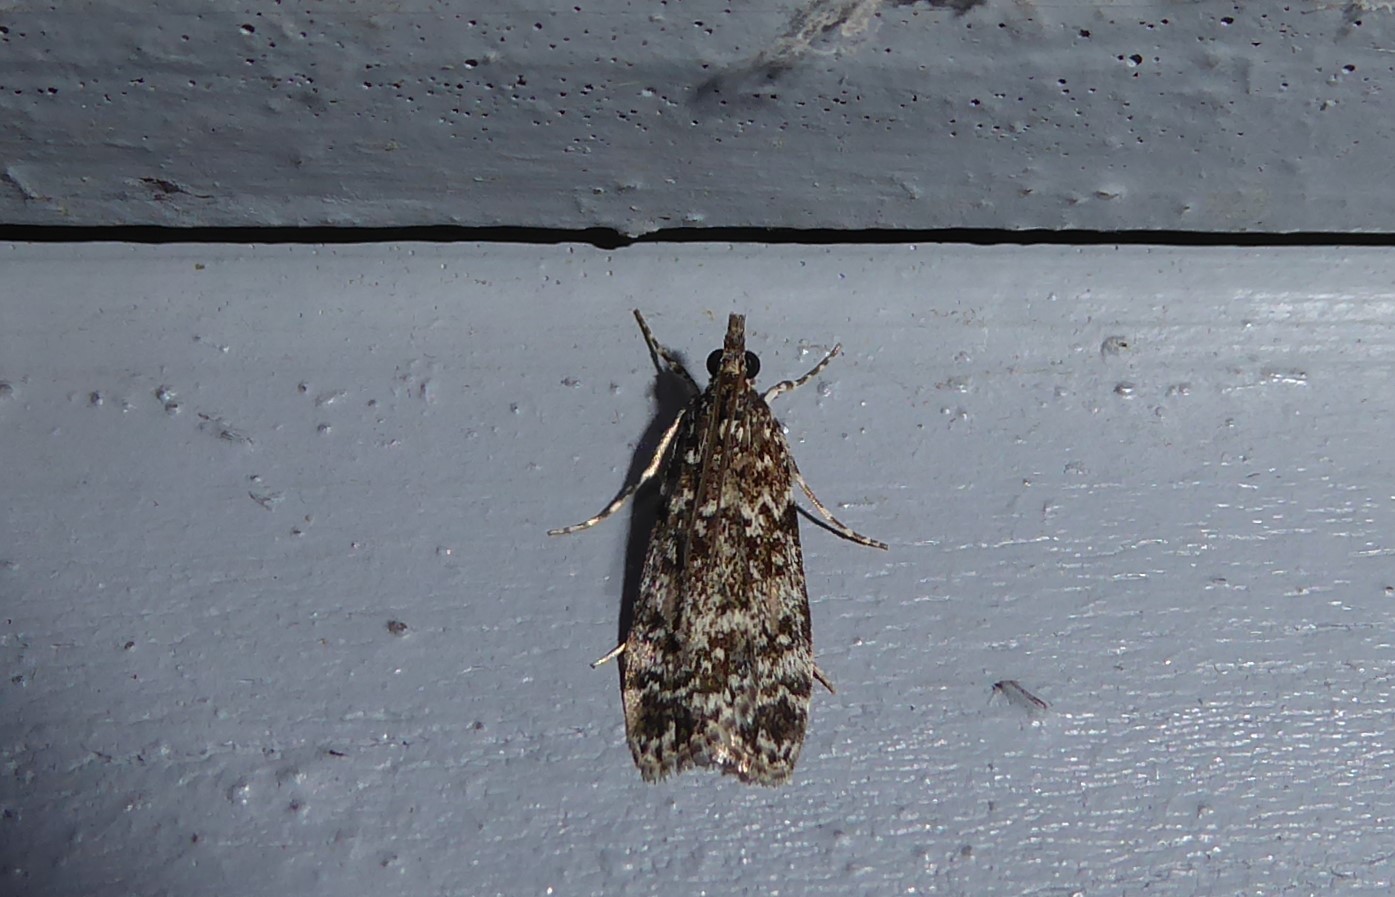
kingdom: Animalia
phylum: Arthropoda
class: Insecta
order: Lepidoptera
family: Crambidae
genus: Eudonia
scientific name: Eudonia philerga
